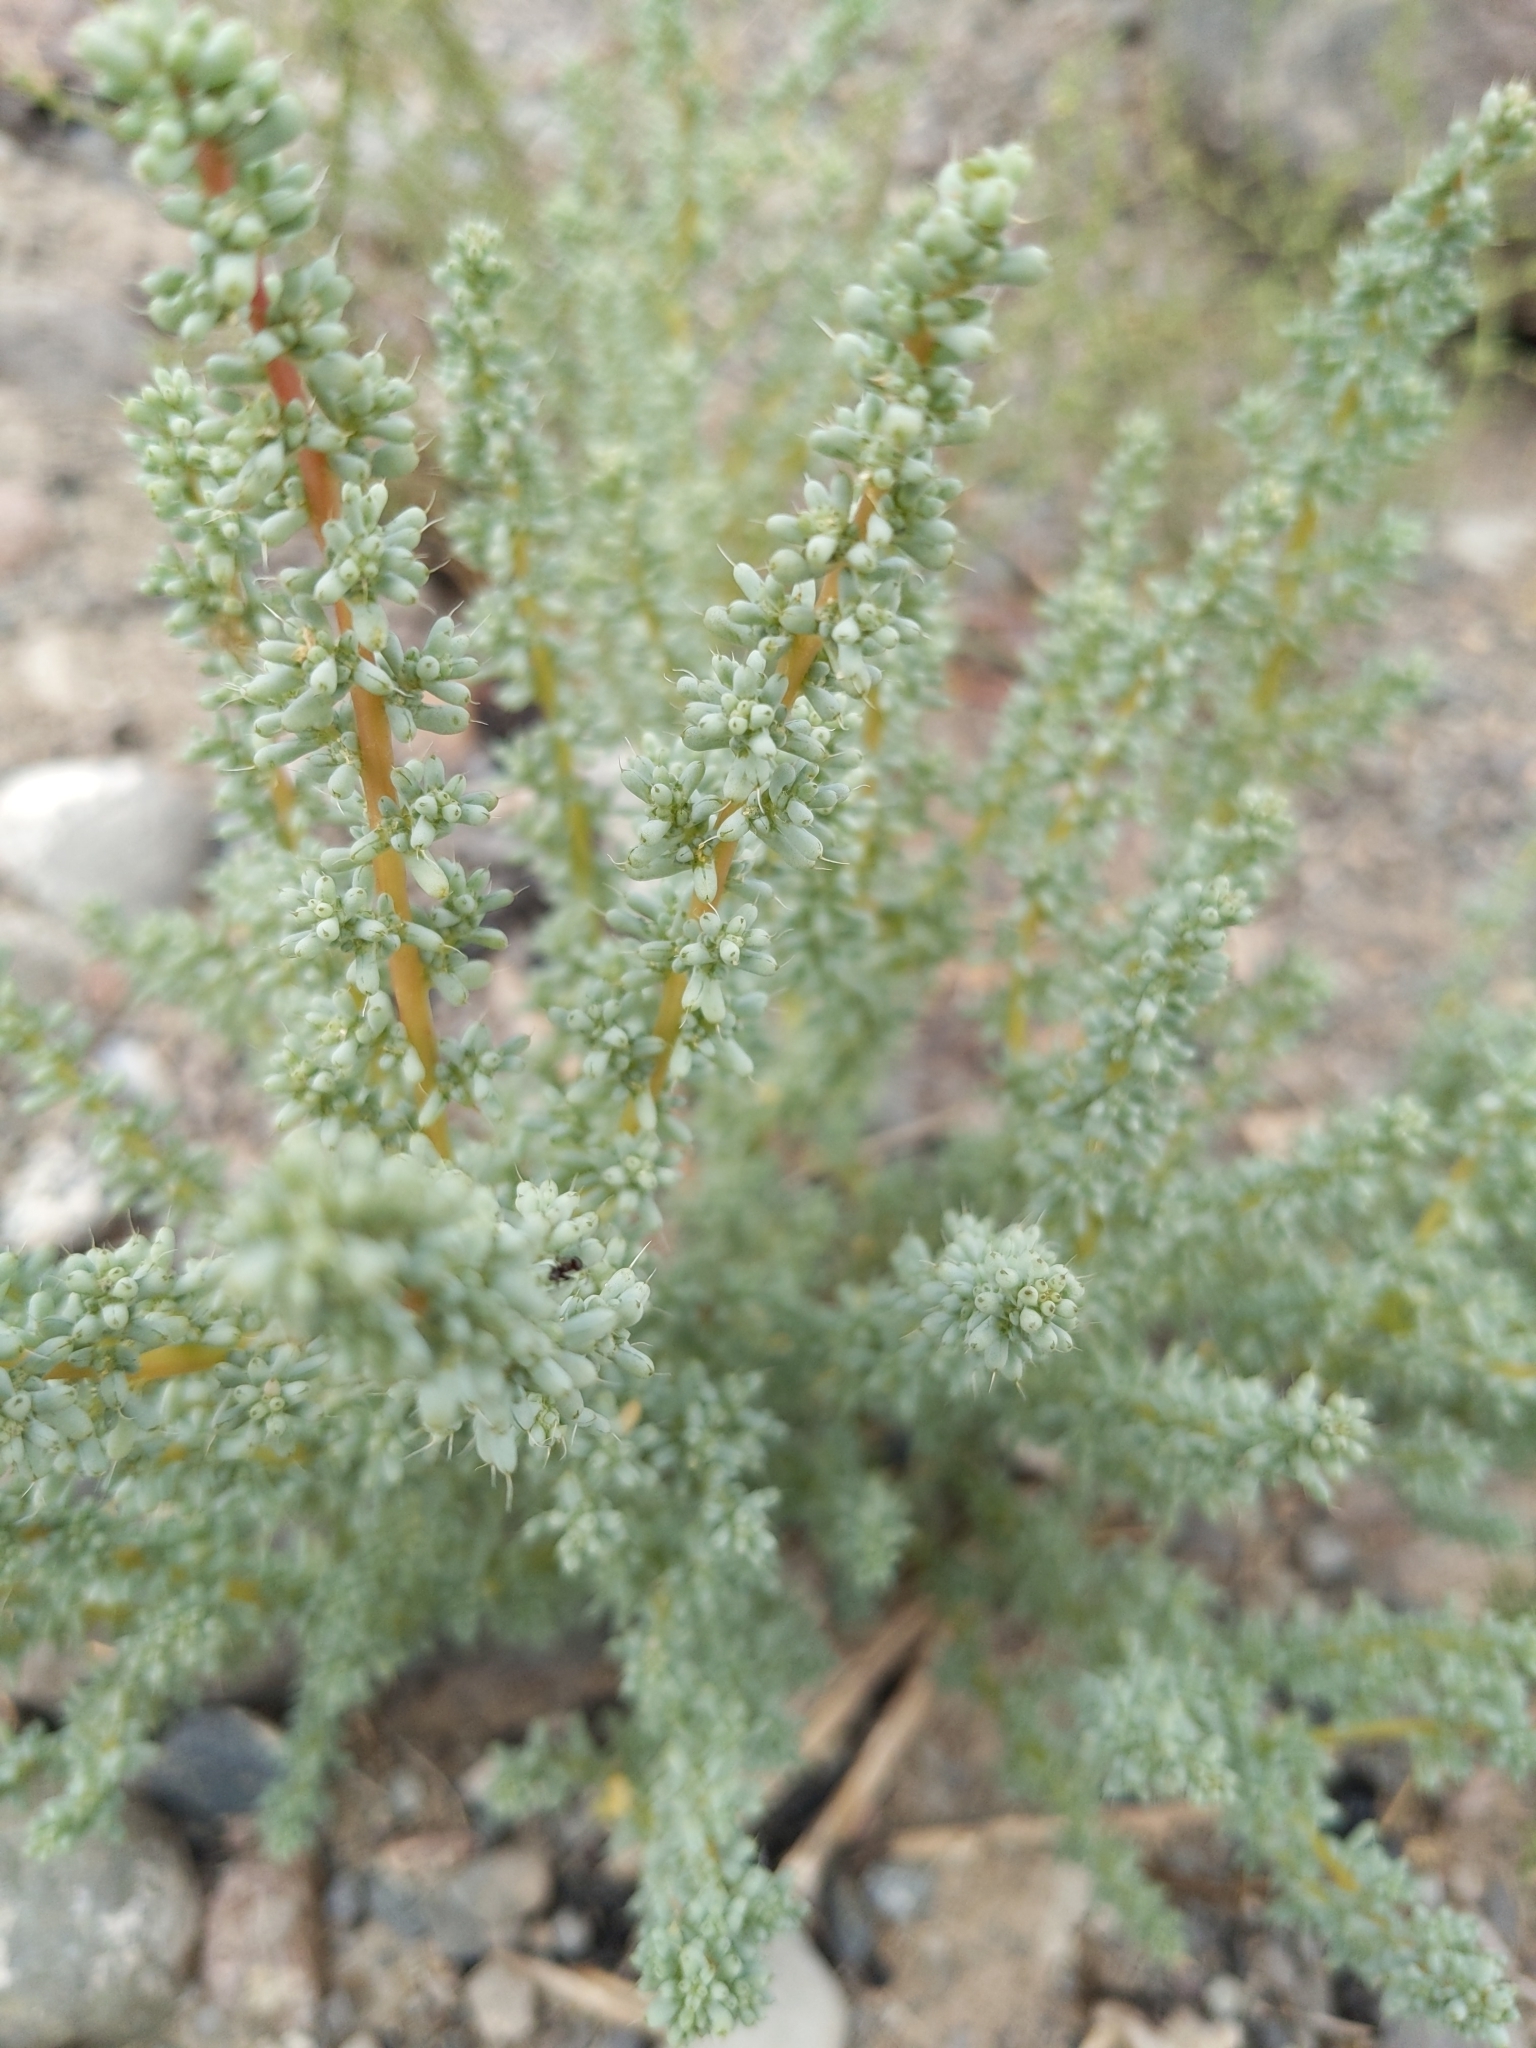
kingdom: Plantae
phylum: Tracheophyta
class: Magnoliopsida
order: Caryophyllales
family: Amaranthaceae
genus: Halogeton
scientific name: Halogeton glomeratus
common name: Saltlover
